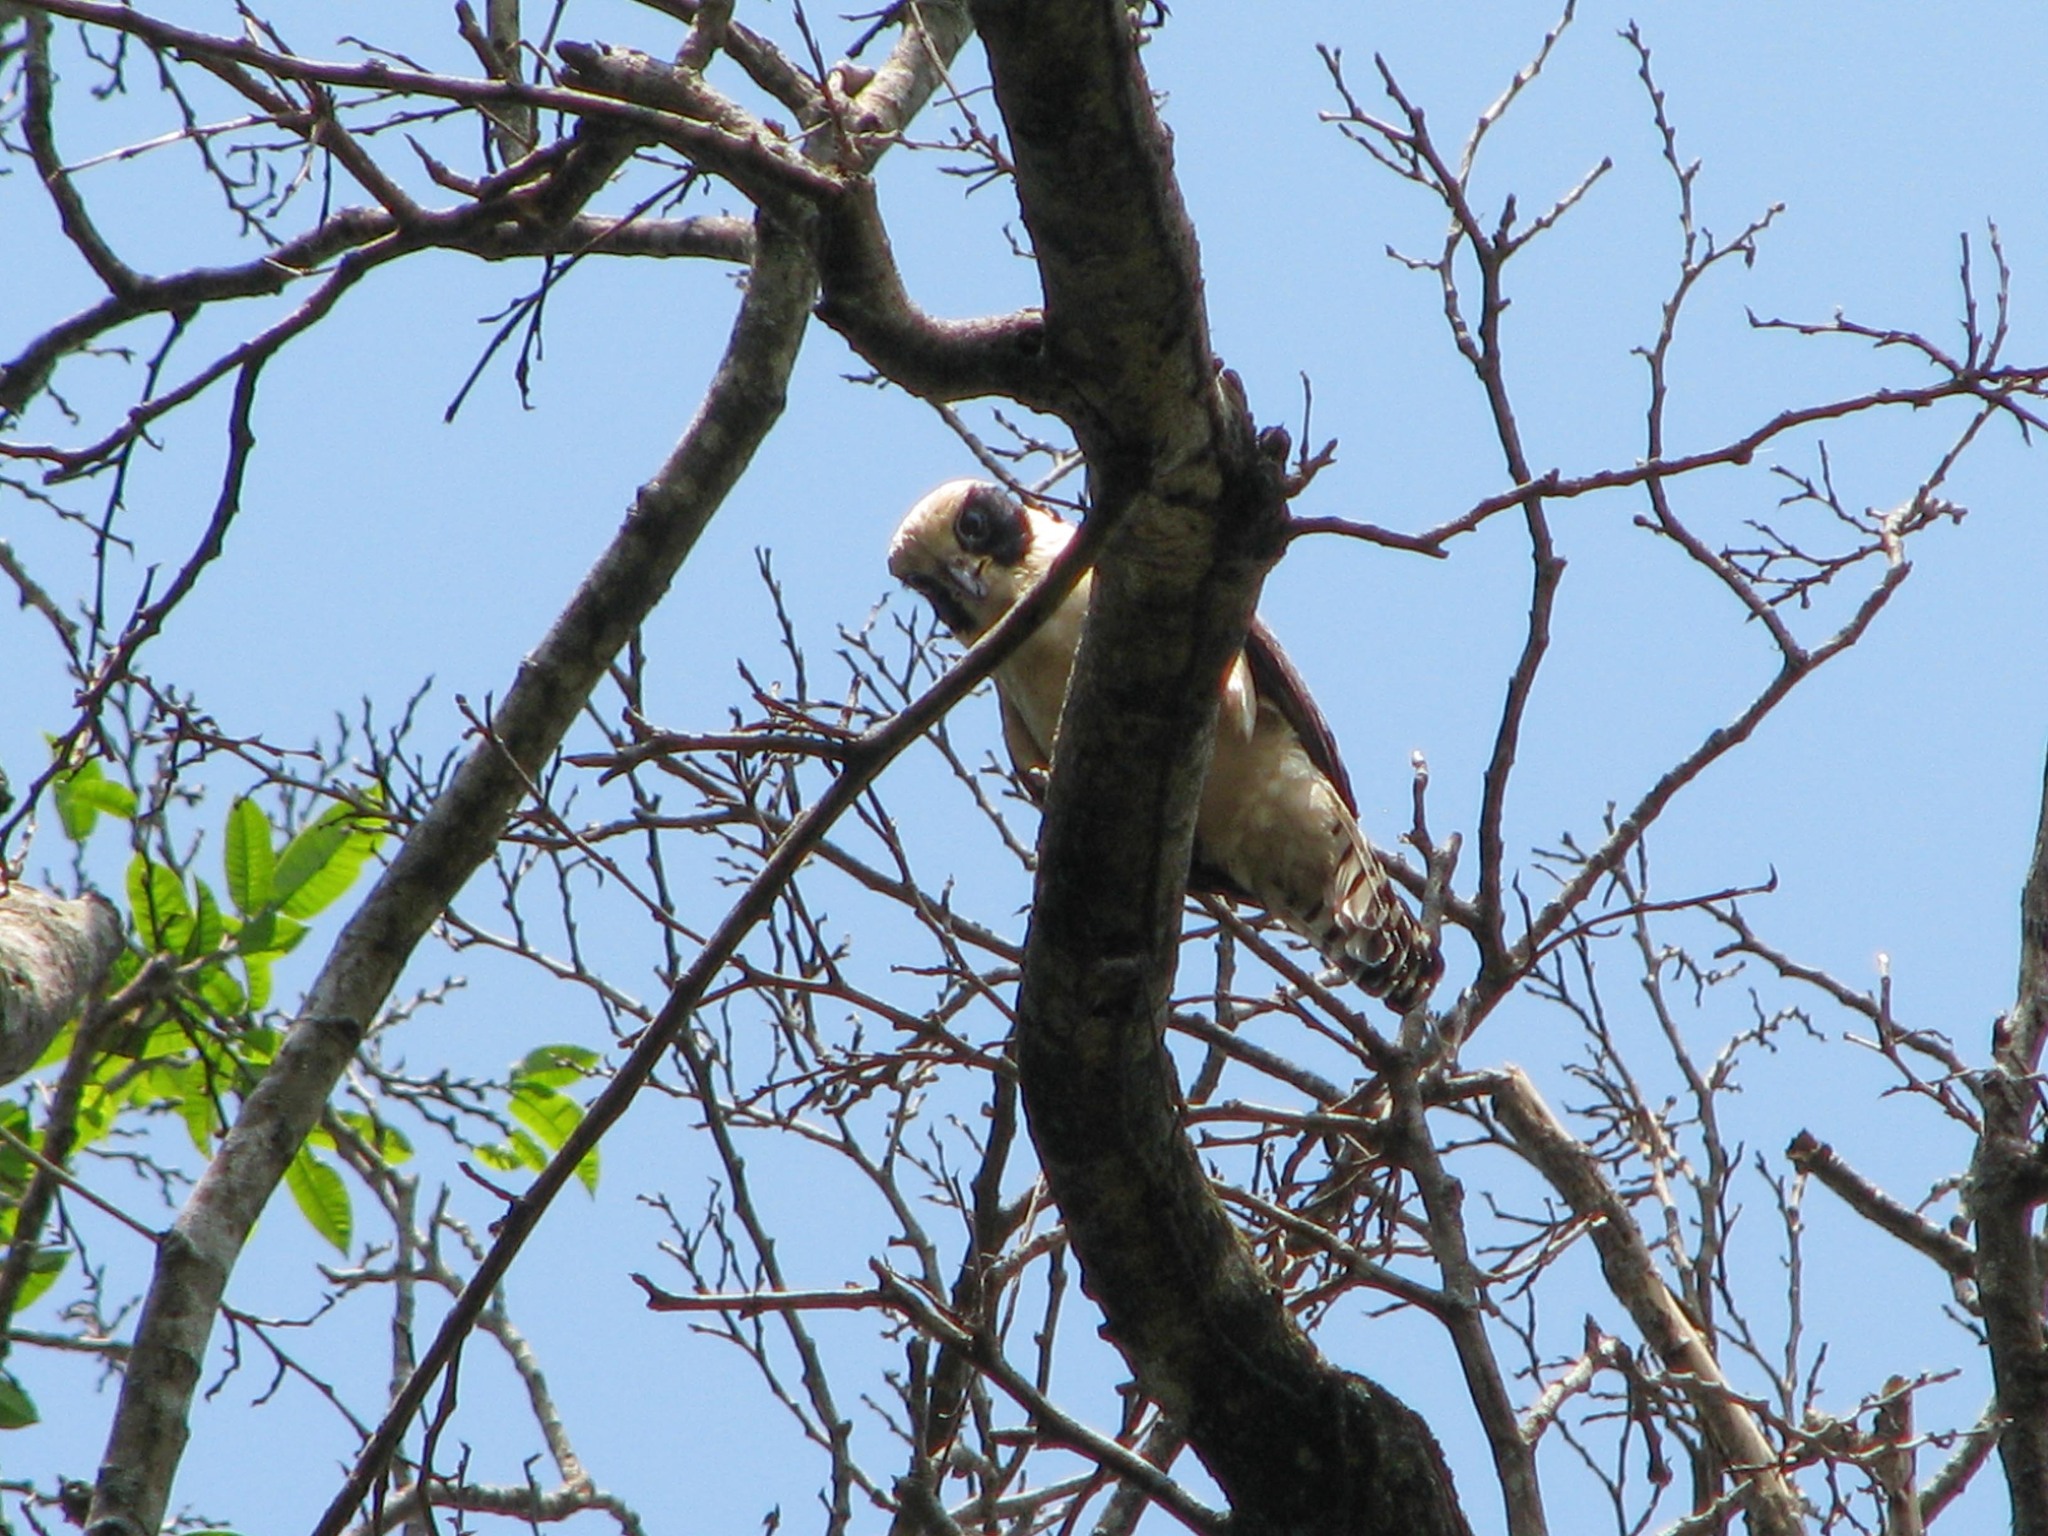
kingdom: Animalia
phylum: Chordata
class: Aves
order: Falconiformes
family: Falconidae
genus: Herpetotheres
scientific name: Herpetotheres cachinnans
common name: Laughing falcon
